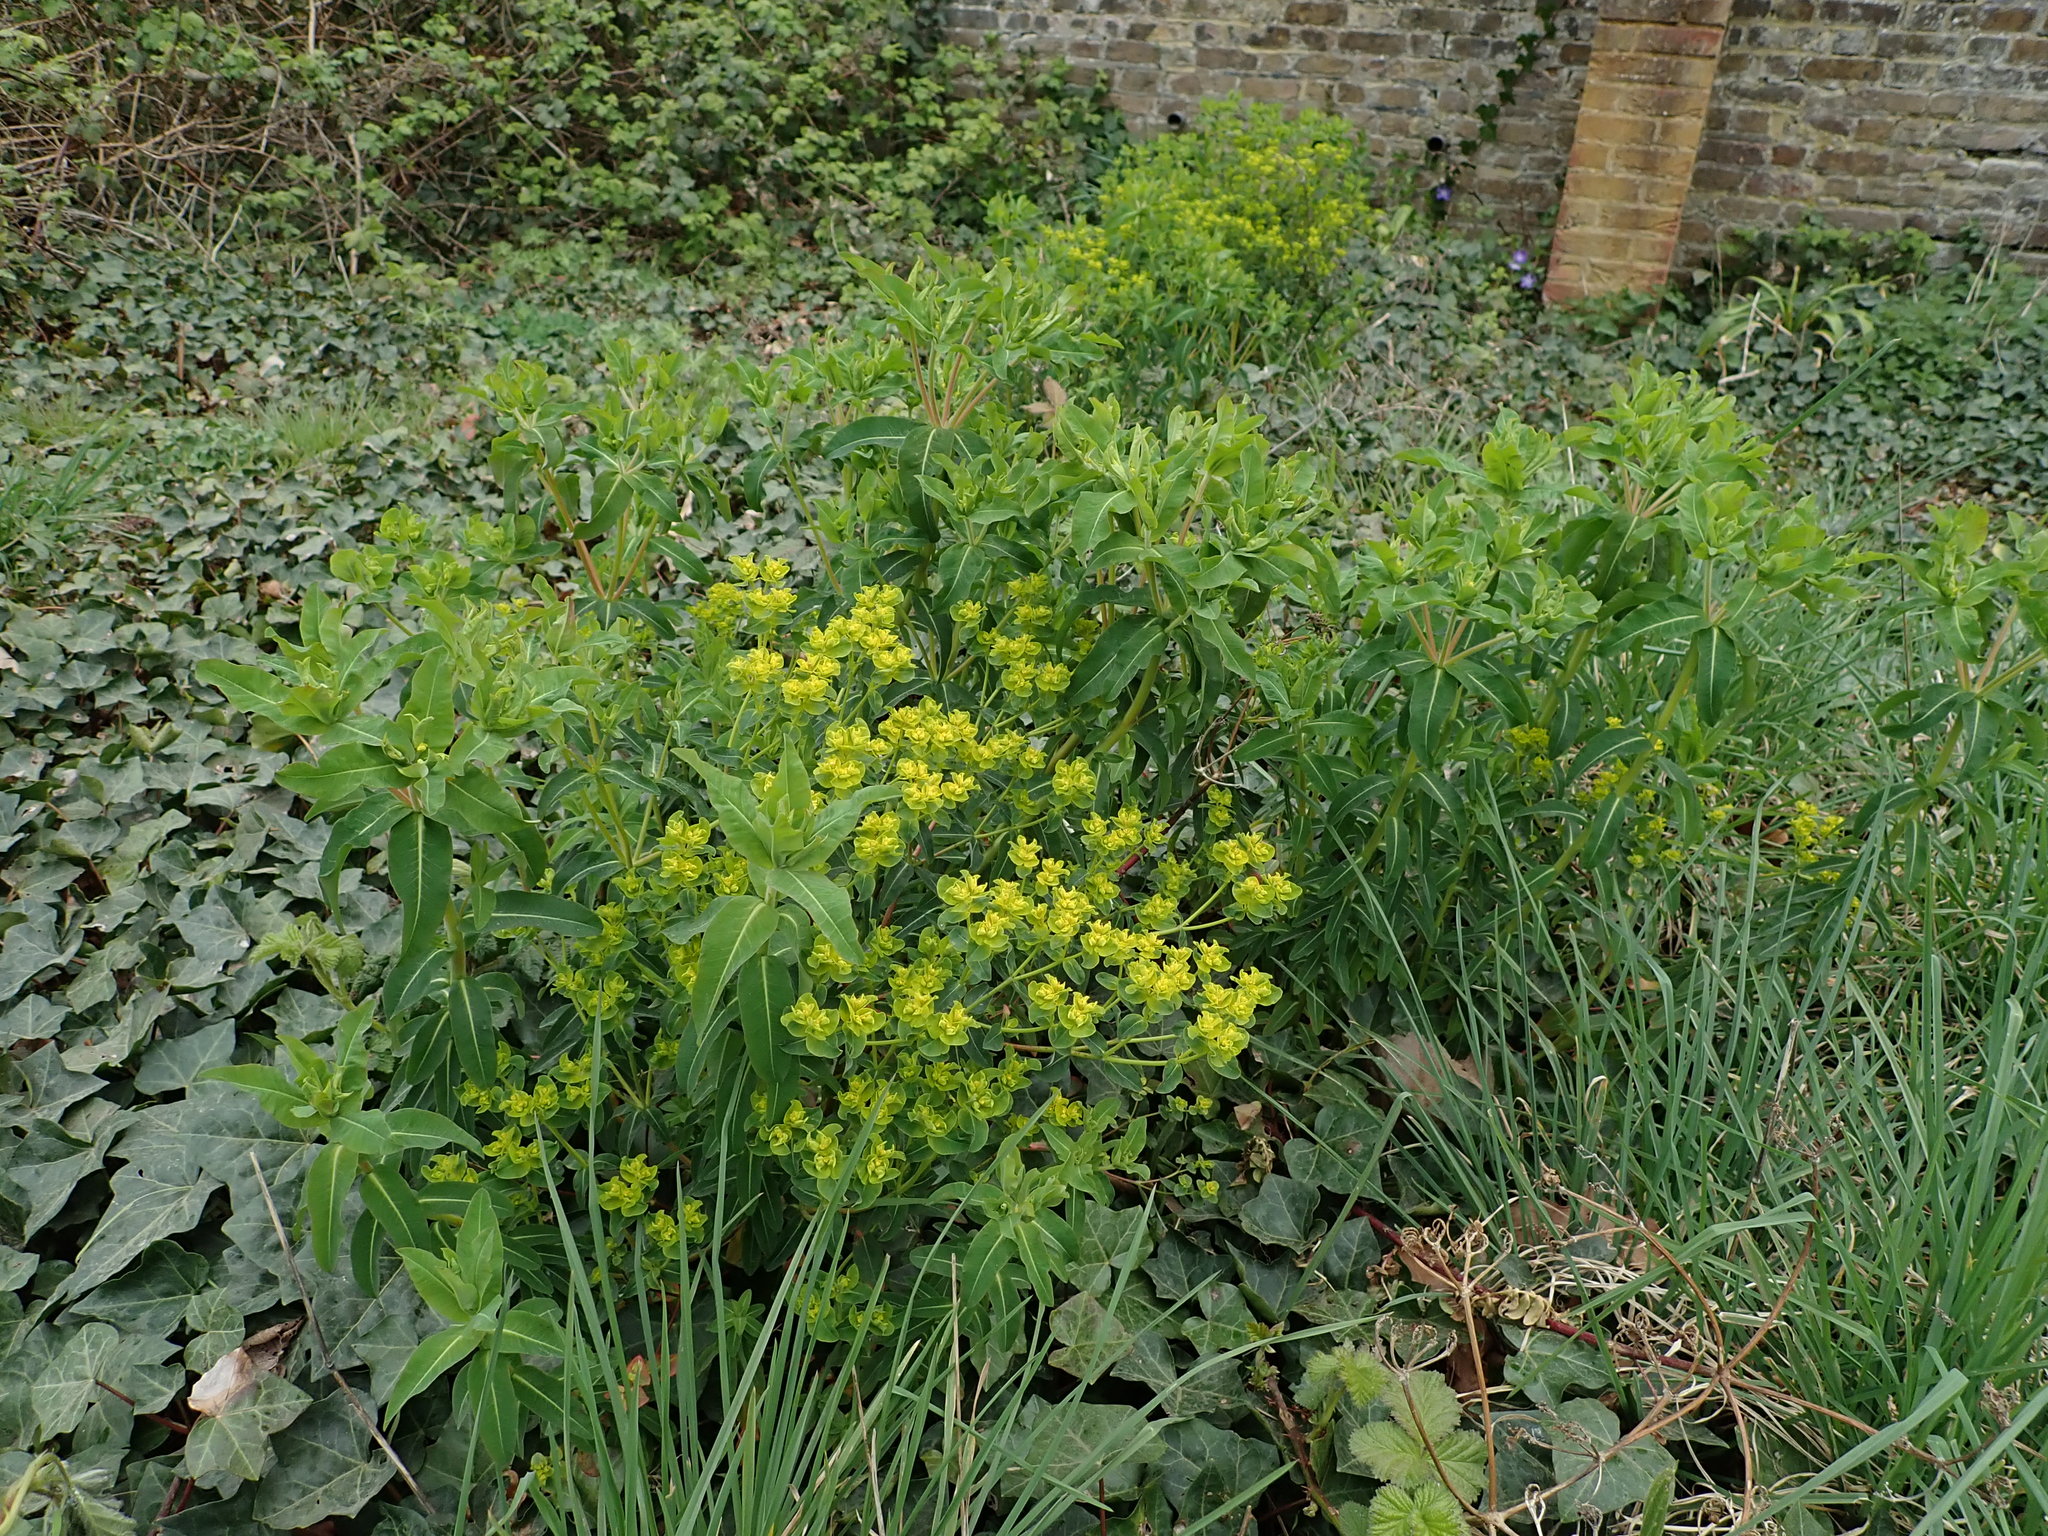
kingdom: Plantae
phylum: Tracheophyta
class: Magnoliopsida
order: Malpighiales
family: Euphorbiaceae
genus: Euphorbia
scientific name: Euphorbia oblongata
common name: Balkan spurge
